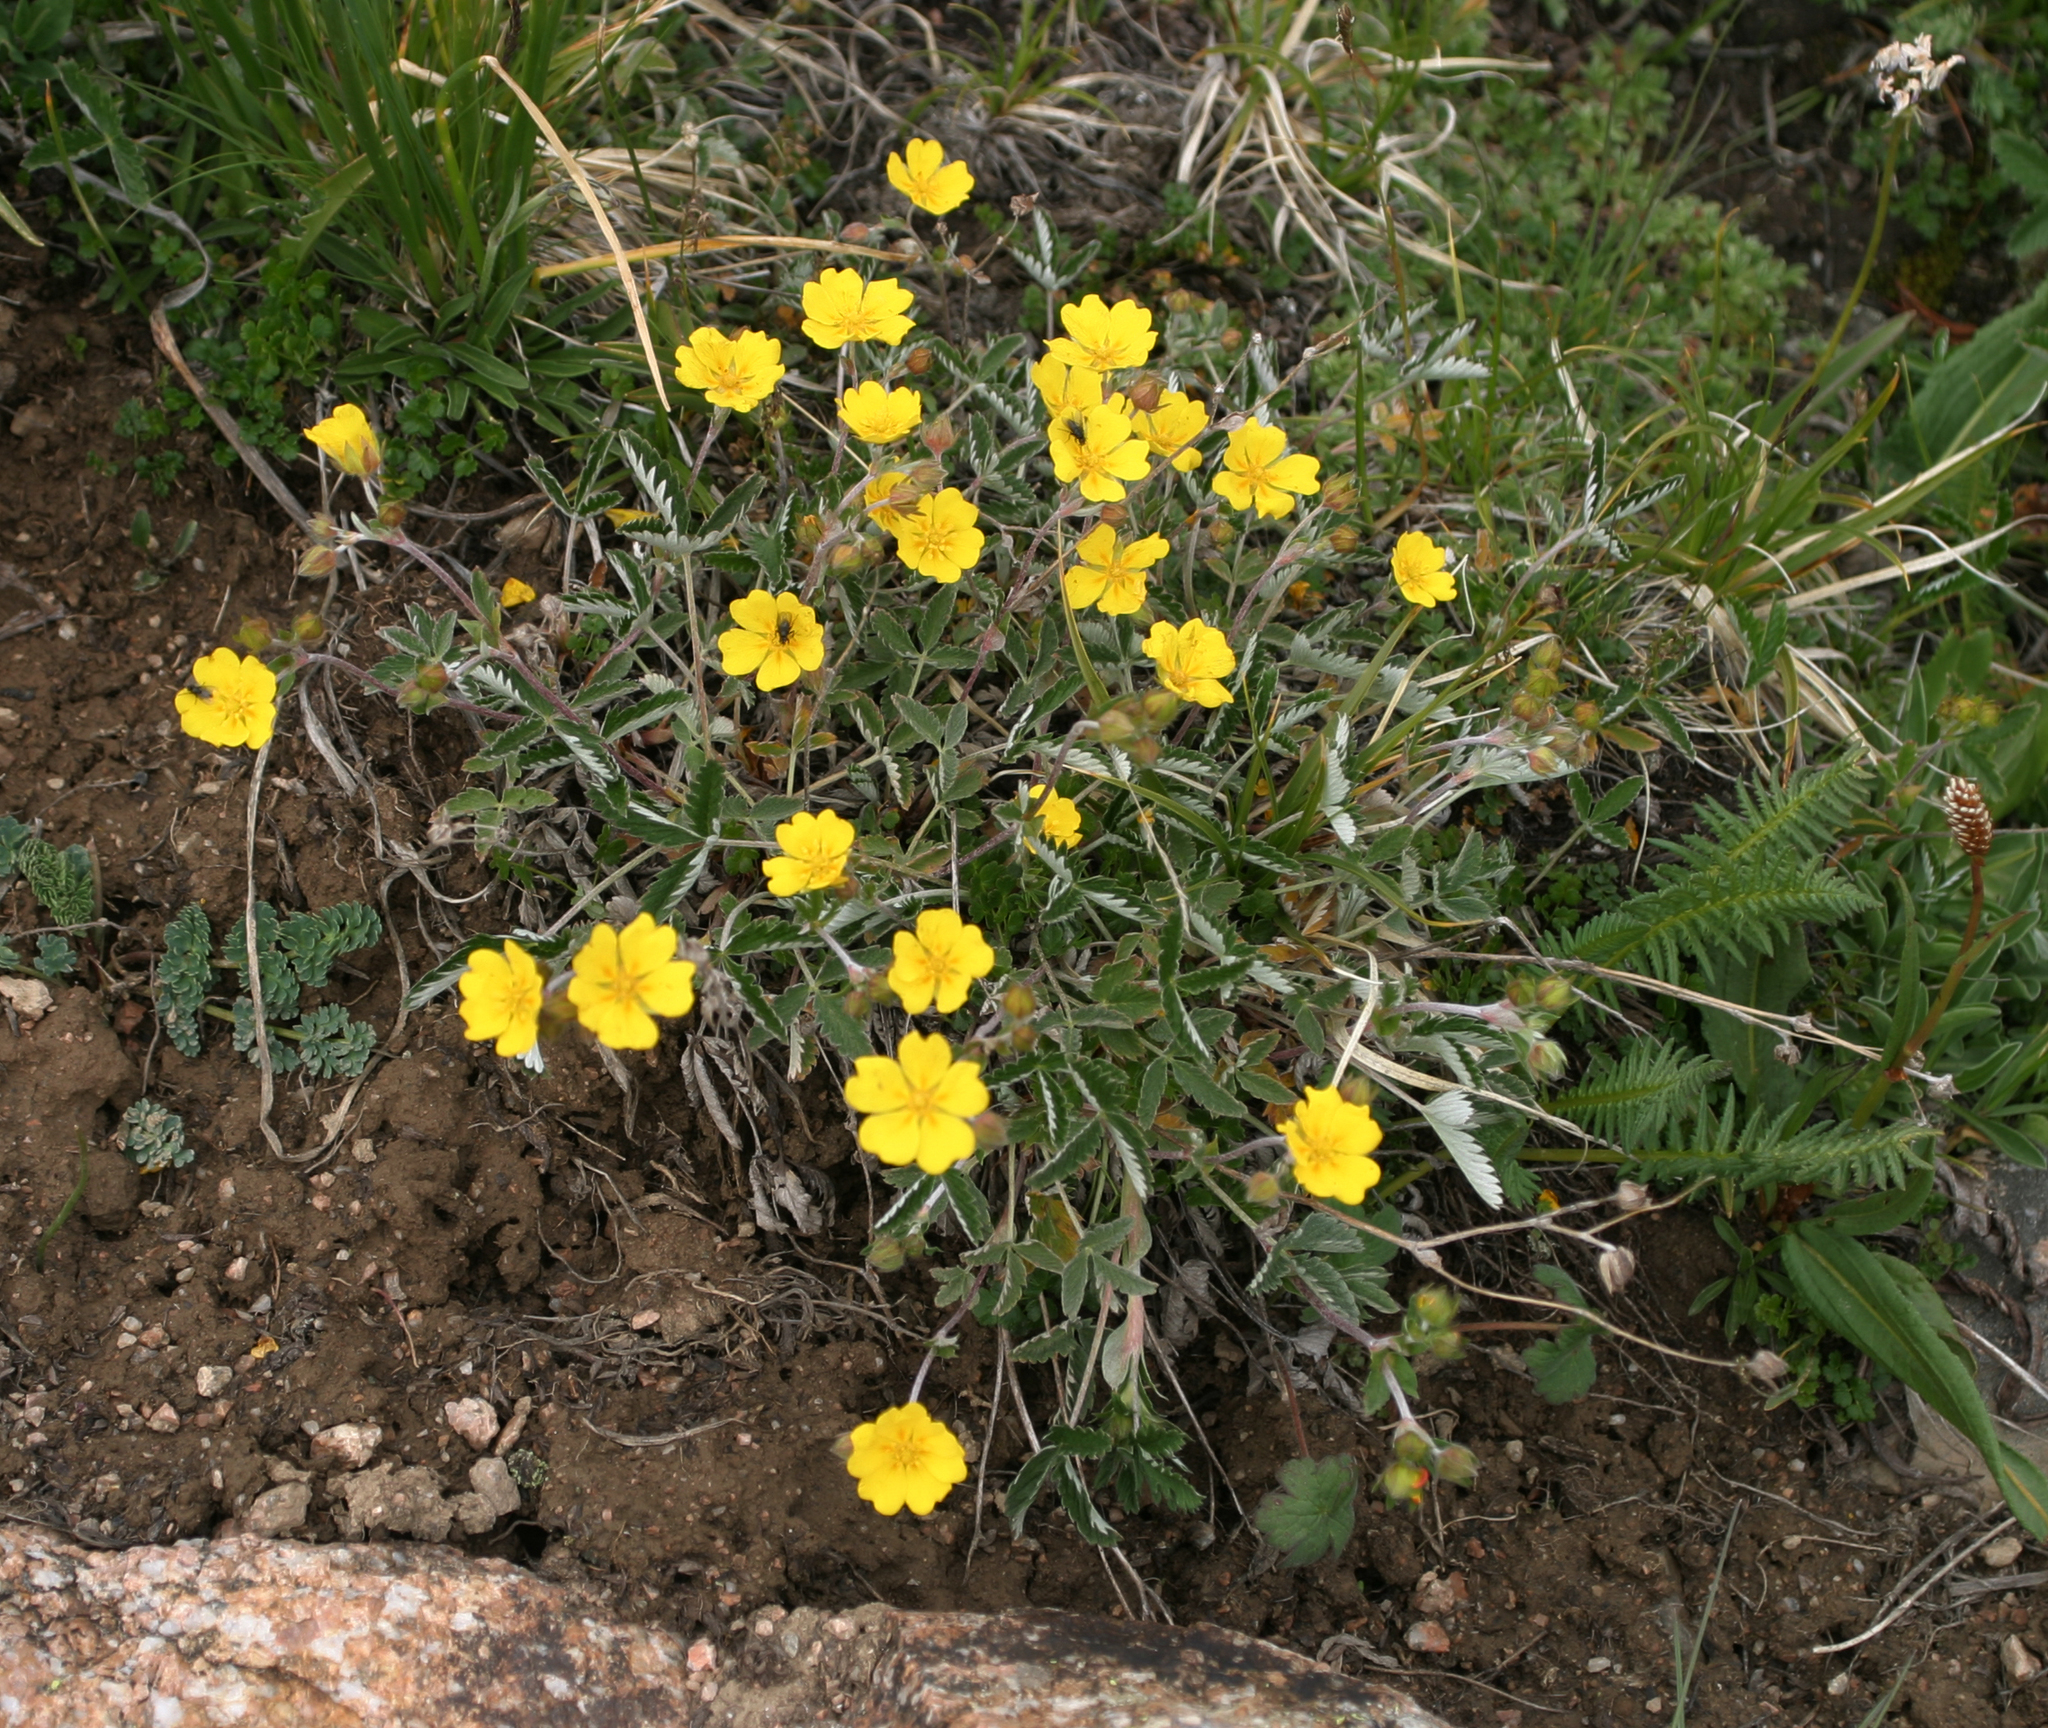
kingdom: Plantae
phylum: Tracheophyta
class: Magnoliopsida
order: Rosales
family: Rosaceae
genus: Potentilla
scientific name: Potentilla nervosa
